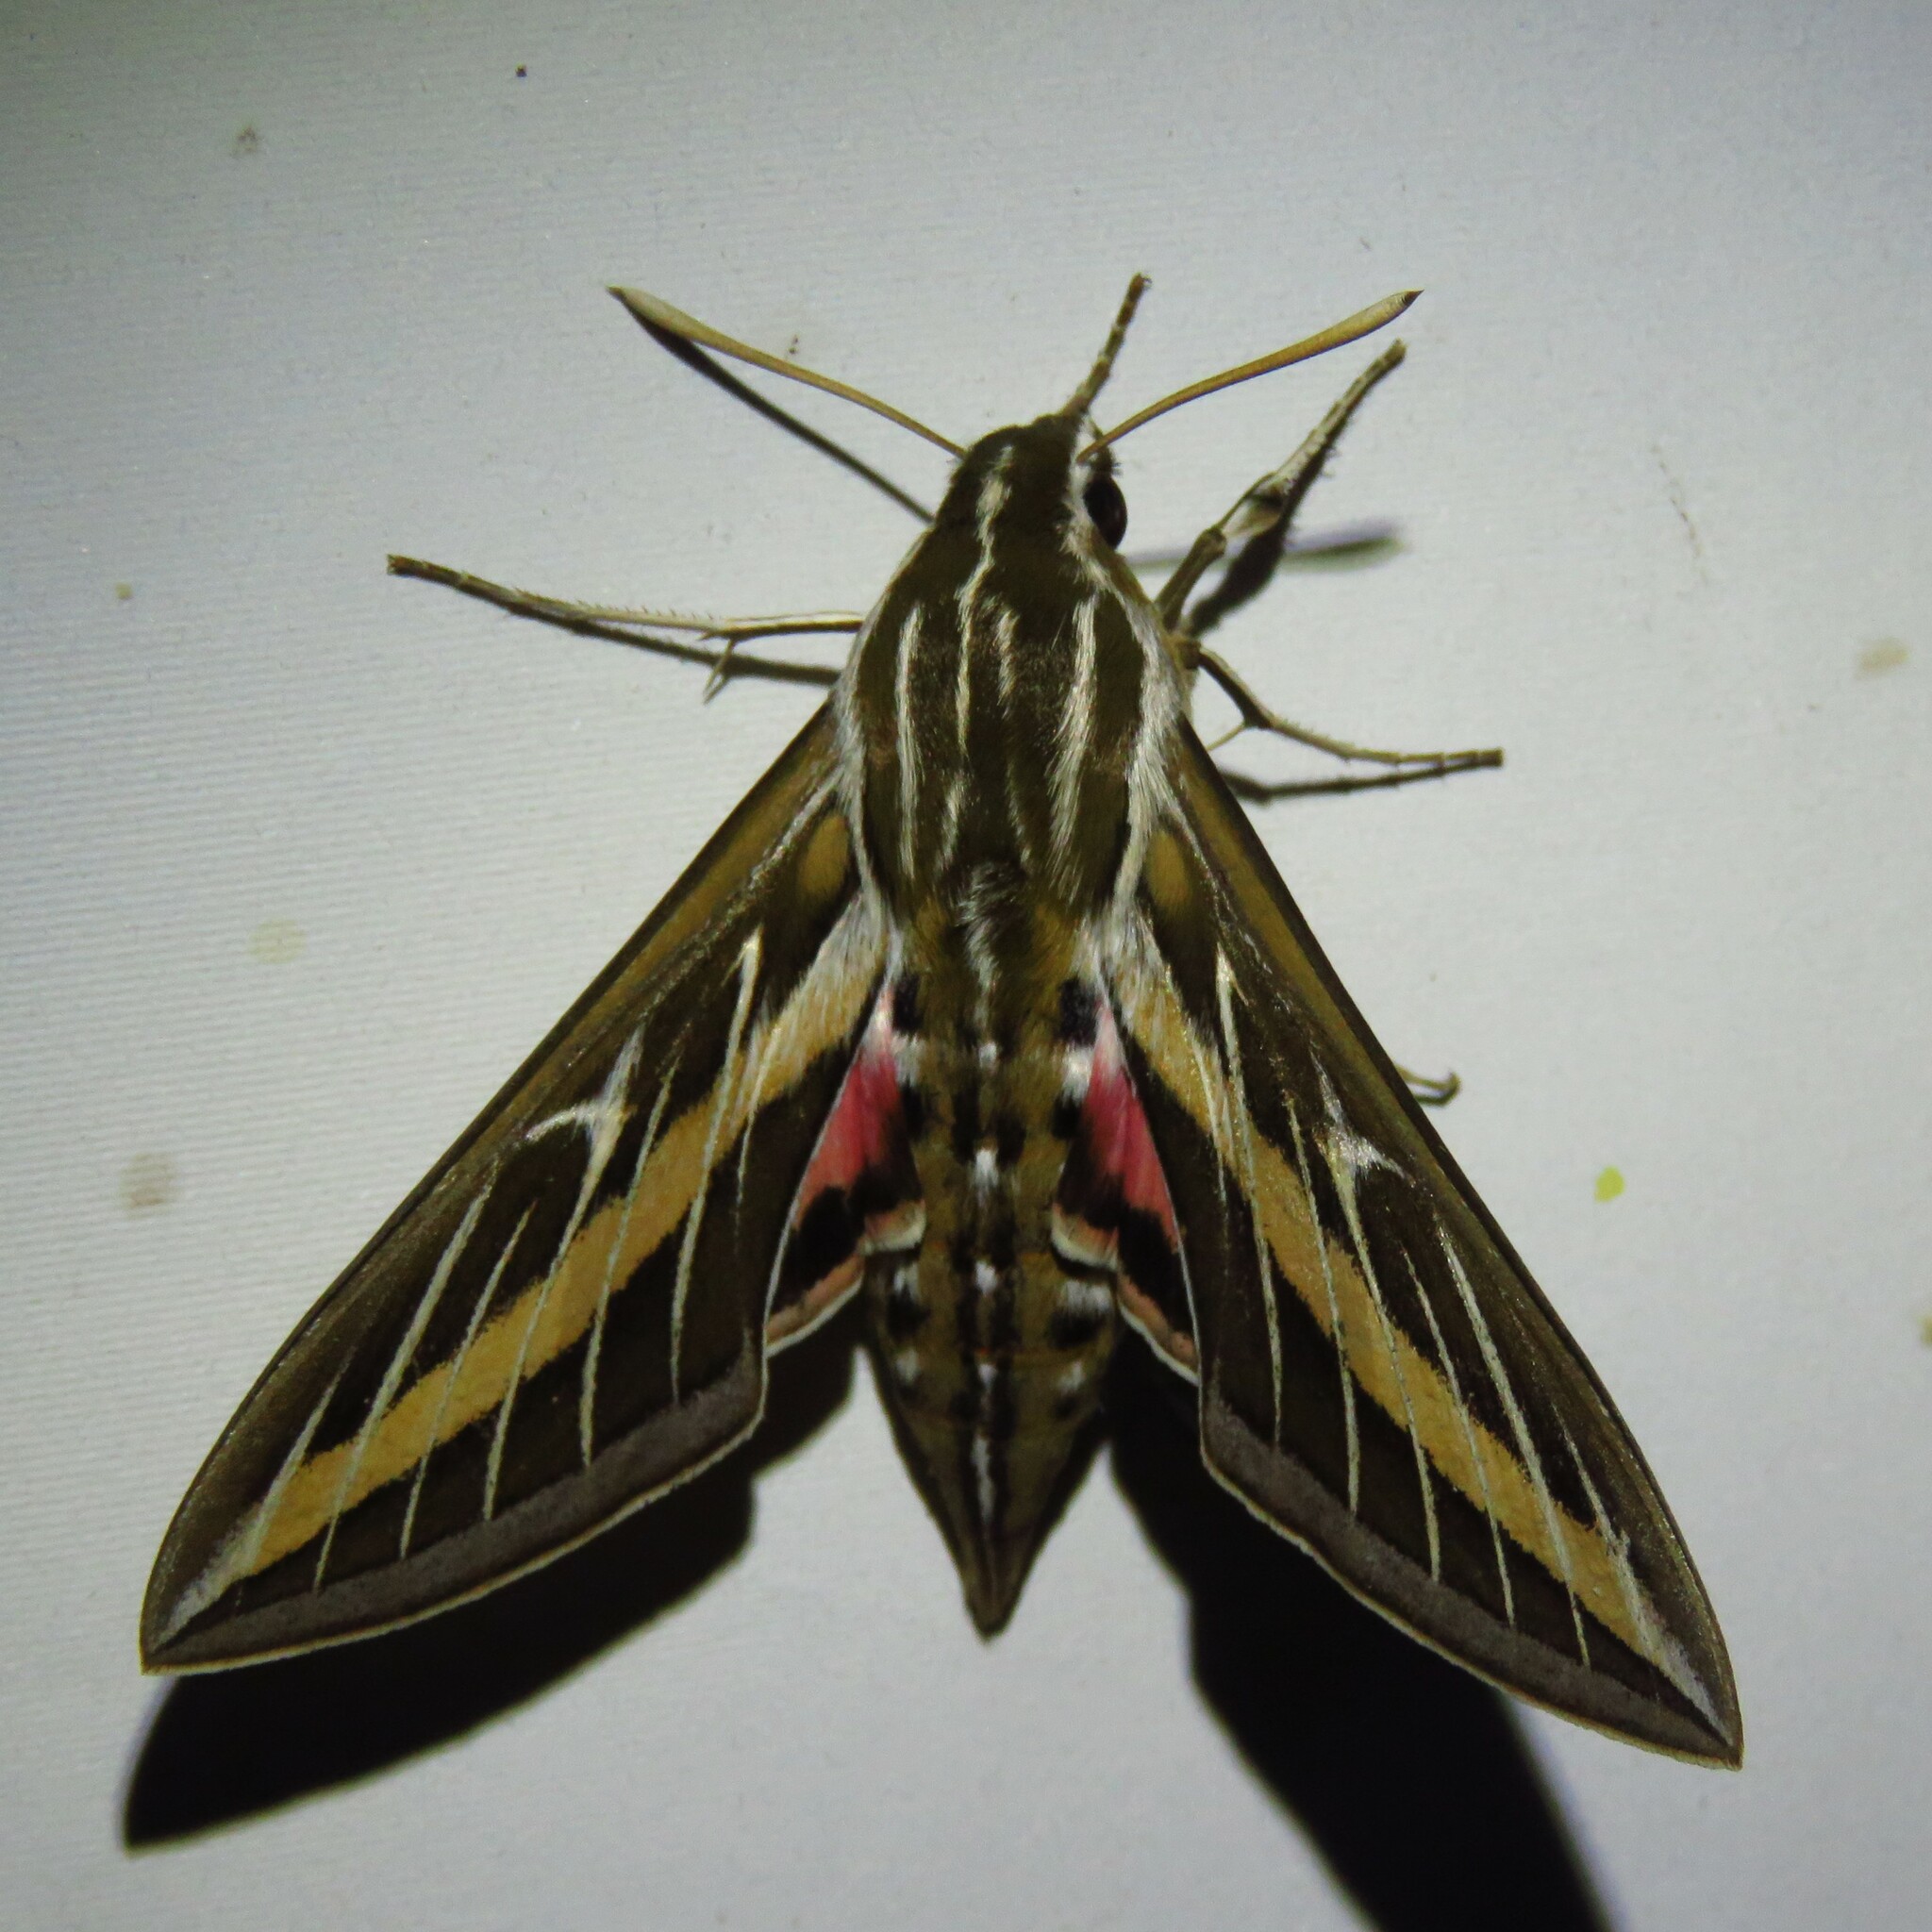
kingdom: Animalia
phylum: Arthropoda
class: Insecta
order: Lepidoptera
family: Sphingidae
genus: Hyles
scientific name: Hyles lineata
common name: White-lined sphinx
